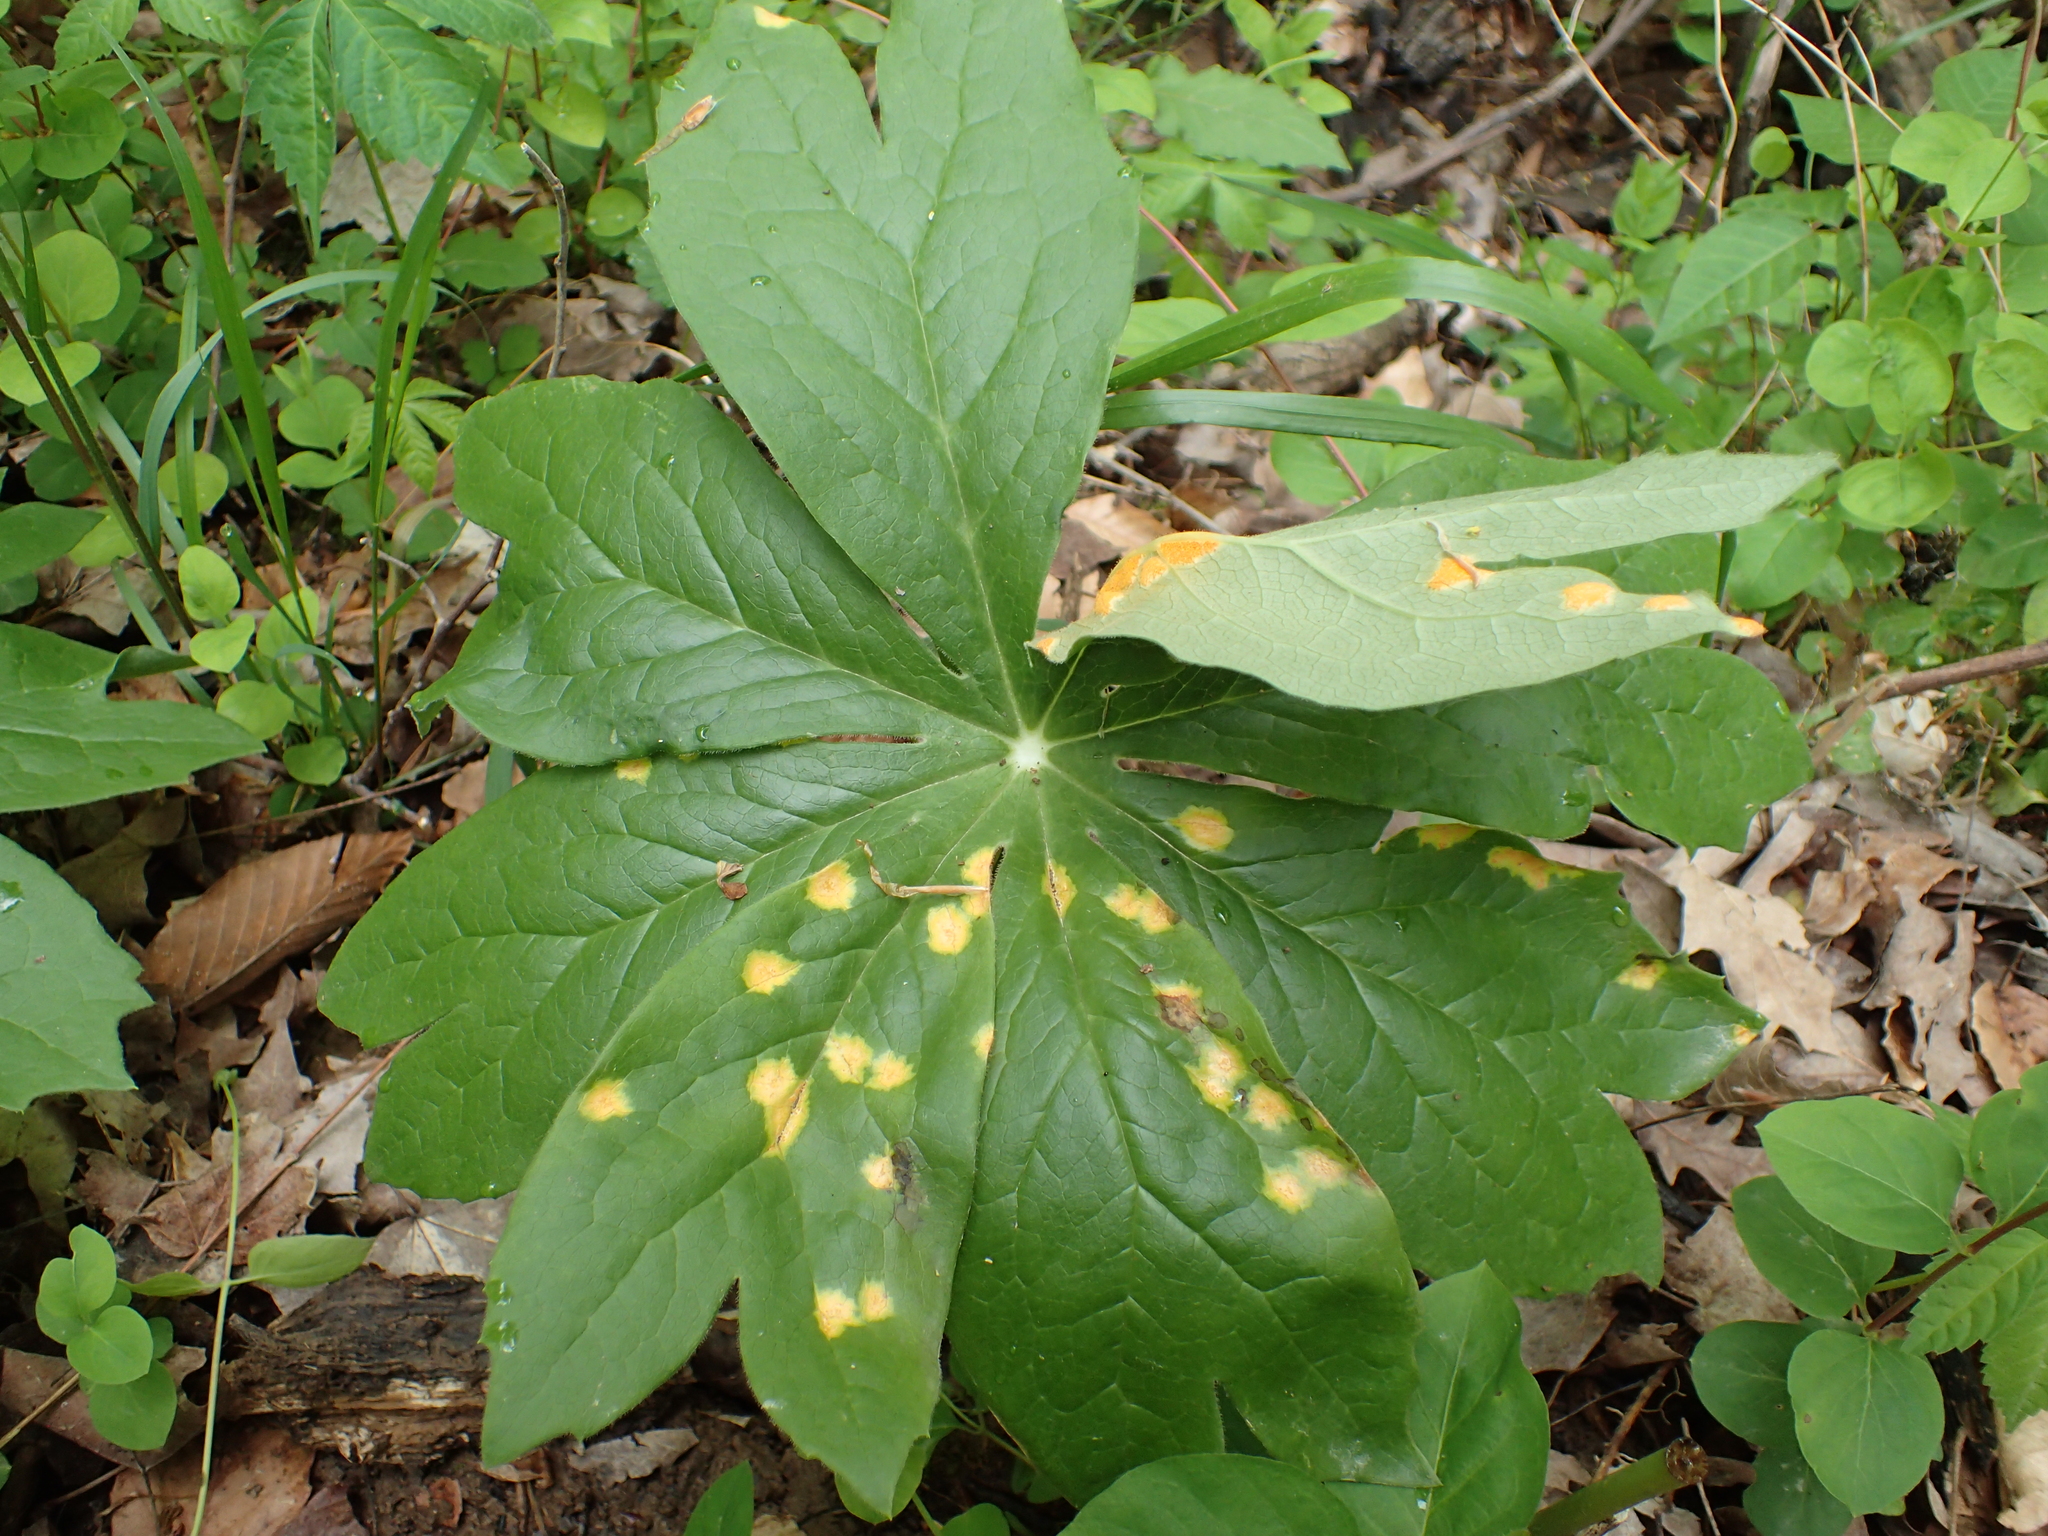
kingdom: Fungi
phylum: Basidiomycota
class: Pucciniomycetes
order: Pucciniales
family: Pucciniaceae
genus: Puccinia
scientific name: Puccinia podophylli
